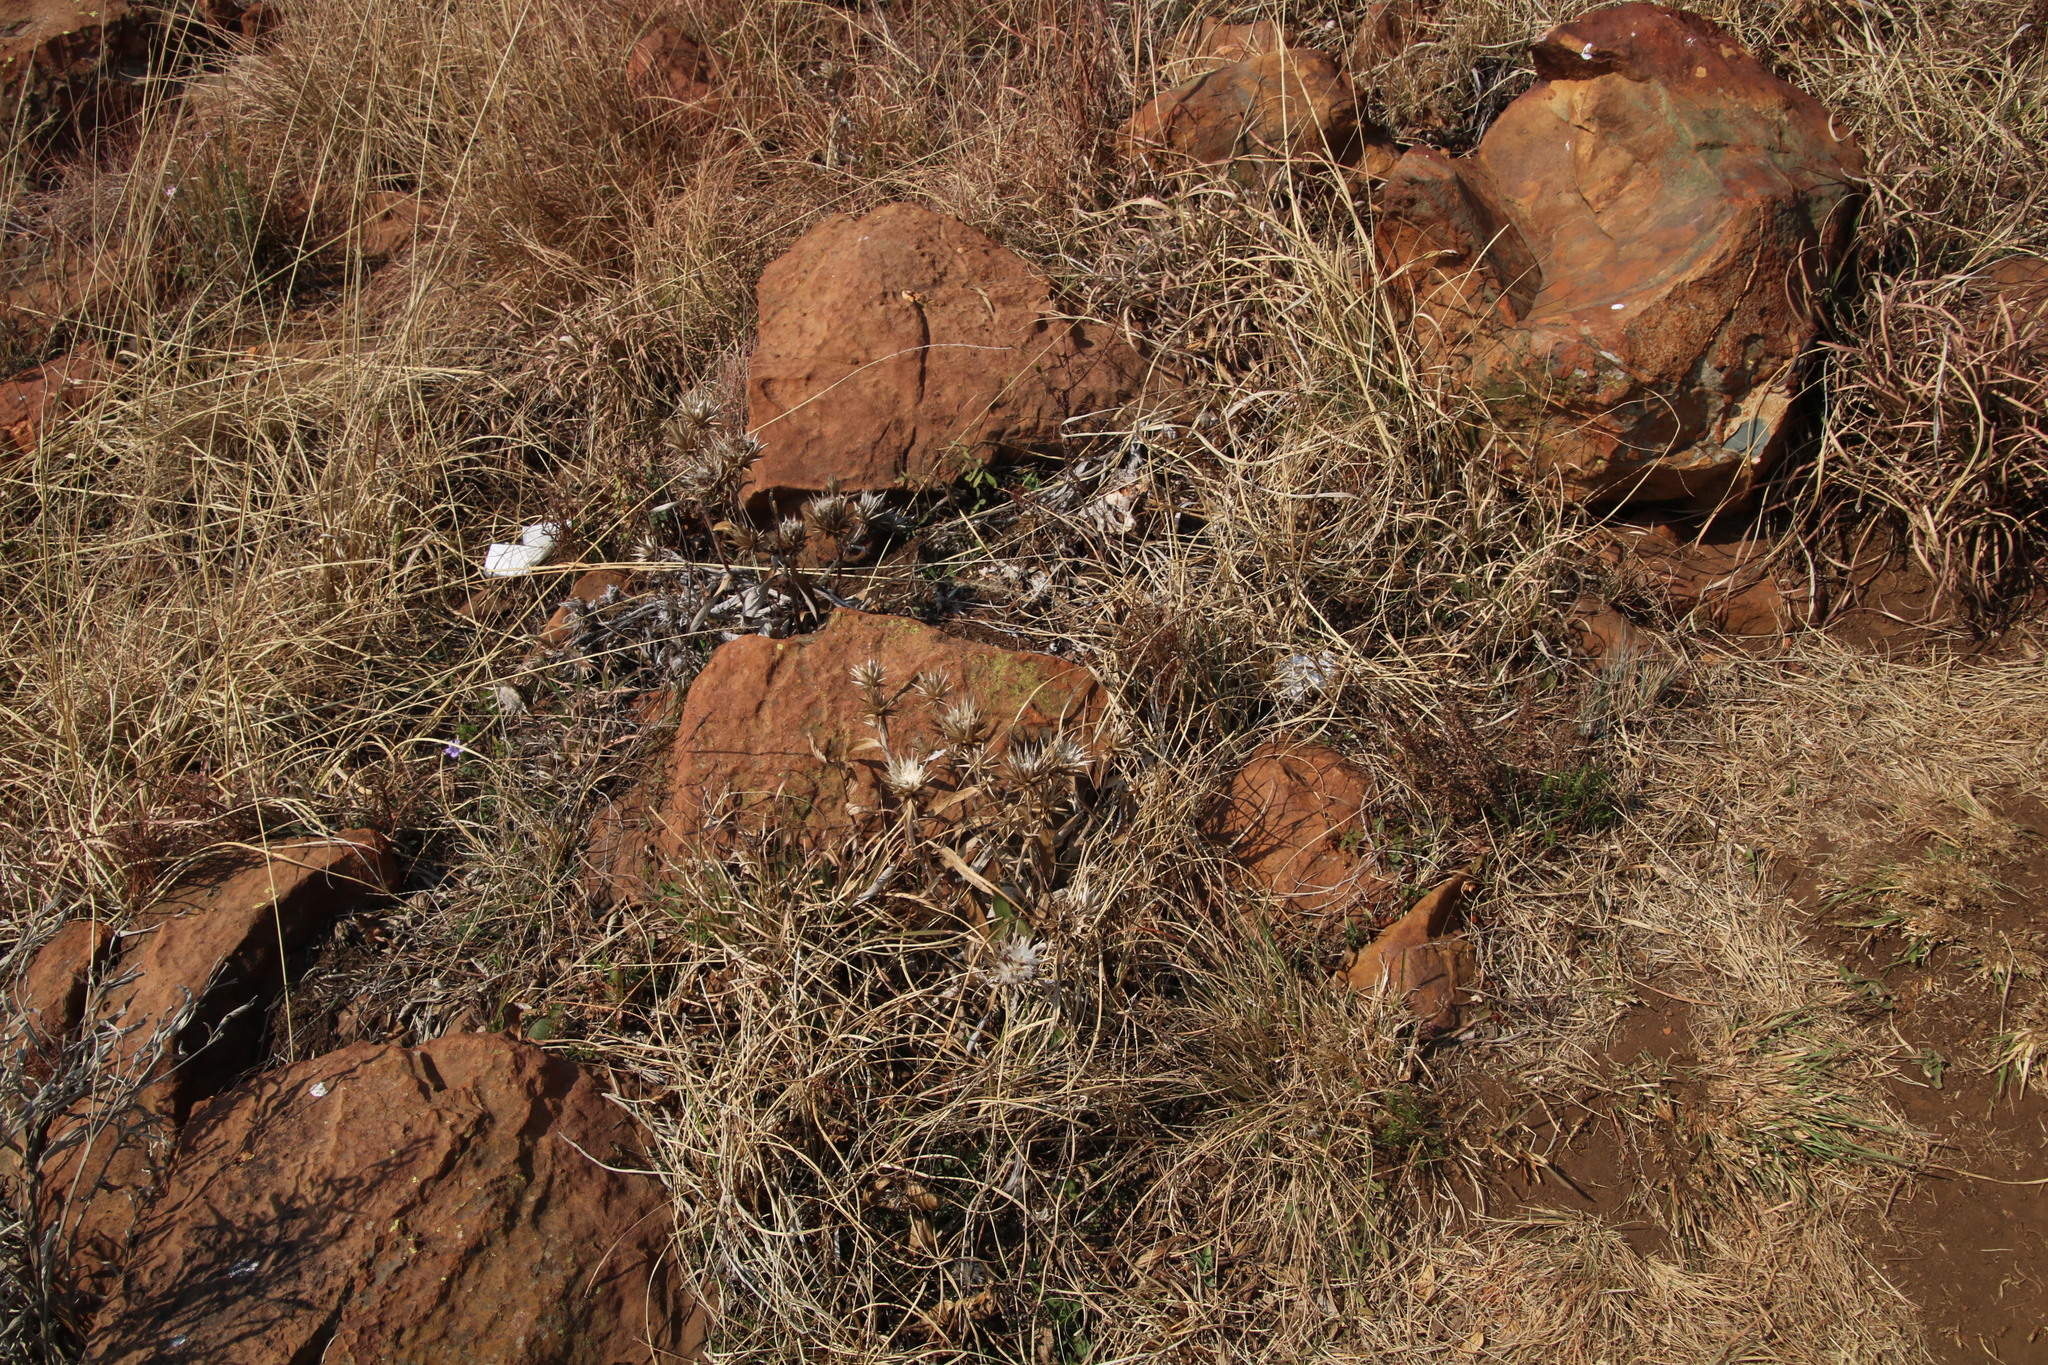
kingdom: Plantae
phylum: Tracheophyta
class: Magnoliopsida
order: Asterales
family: Asteraceae
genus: Macledium
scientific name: Macledium zeyheri
